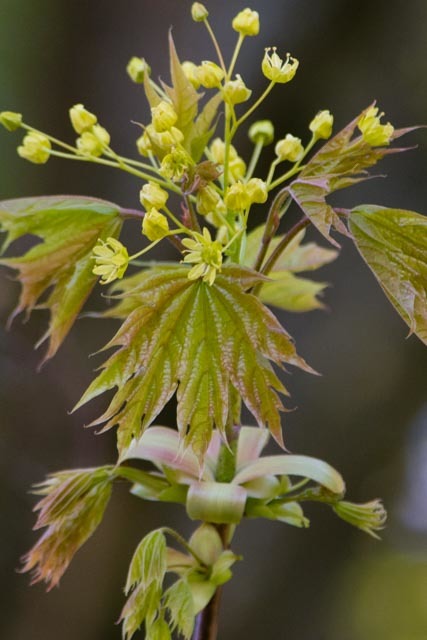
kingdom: Plantae
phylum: Tracheophyta
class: Magnoliopsida
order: Sapindales
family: Sapindaceae
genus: Acer
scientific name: Acer platanoides
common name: Norway maple
